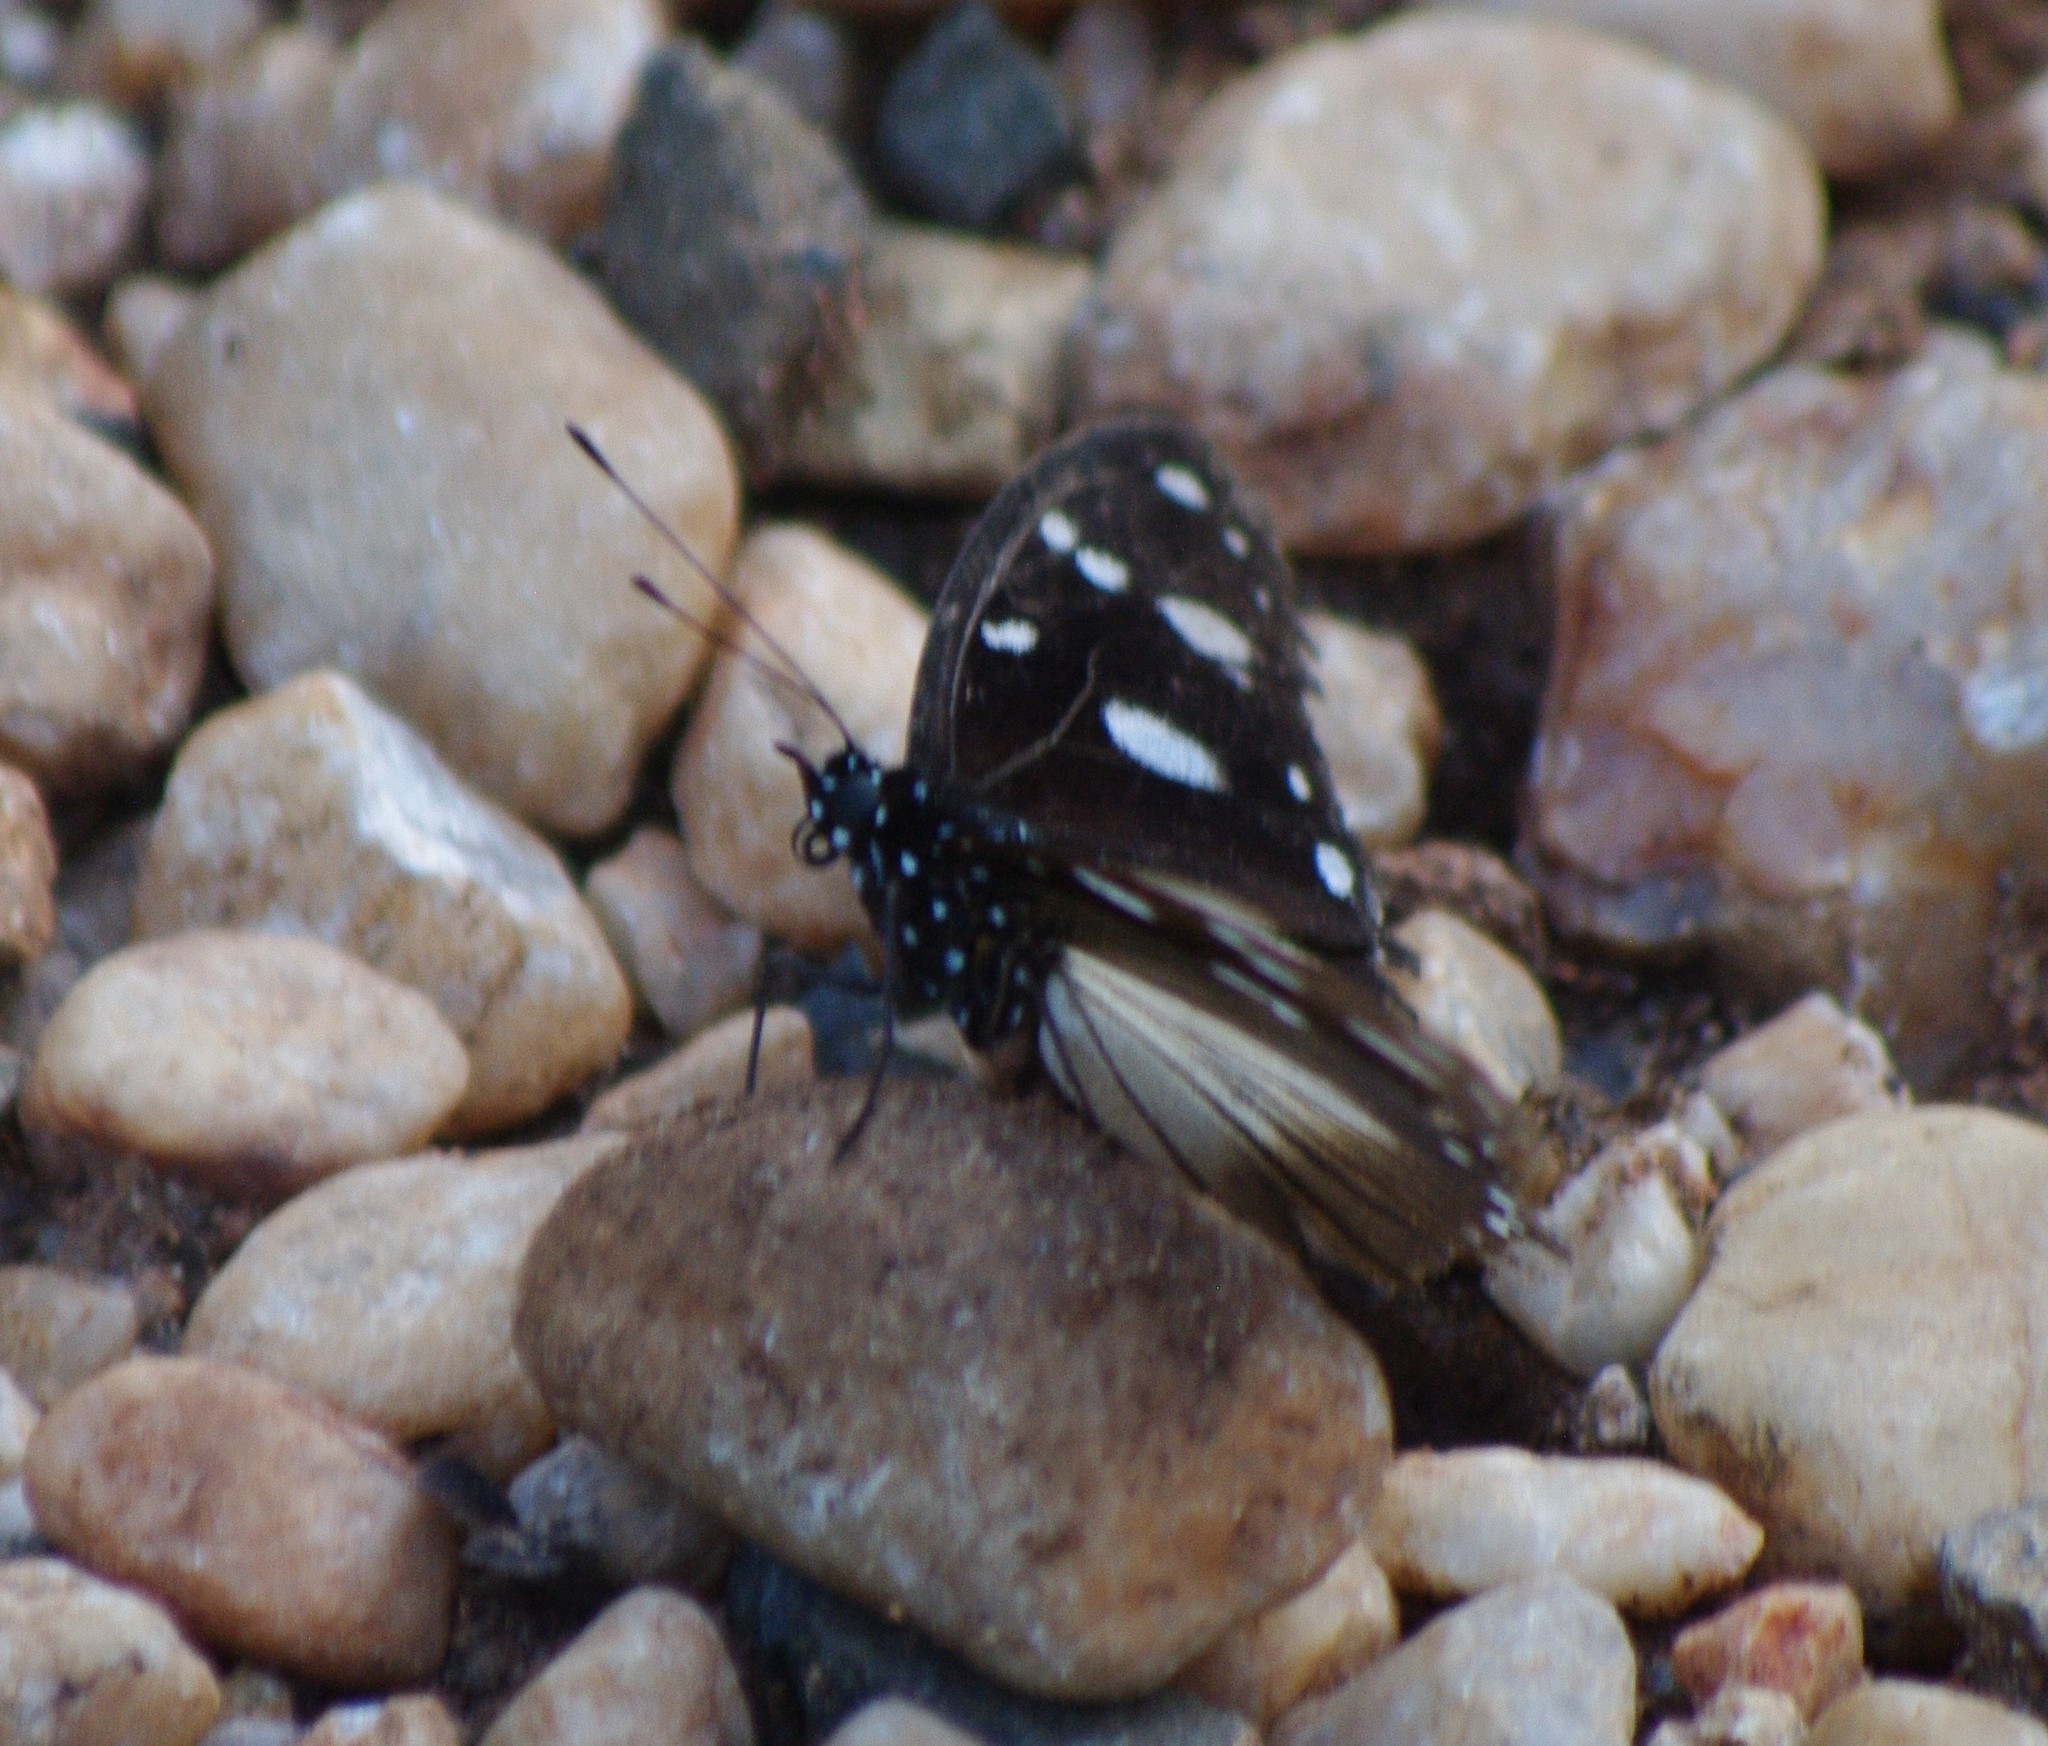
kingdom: Animalia
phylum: Arthropoda
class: Insecta
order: Lepidoptera
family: Nymphalidae
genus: Hypolimnas
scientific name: Hypolimnas dubius
